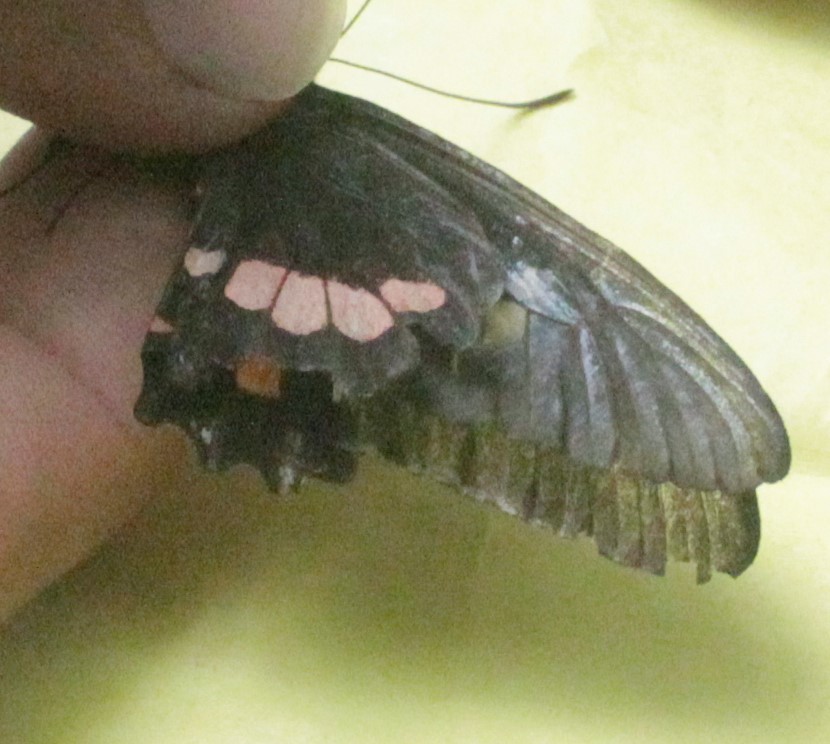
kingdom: Animalia
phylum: Arthropoda
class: Insecta
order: Lepidoptera
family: Papilionidae
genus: Parides
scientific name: Parides eurimedes
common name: True cattleheart
